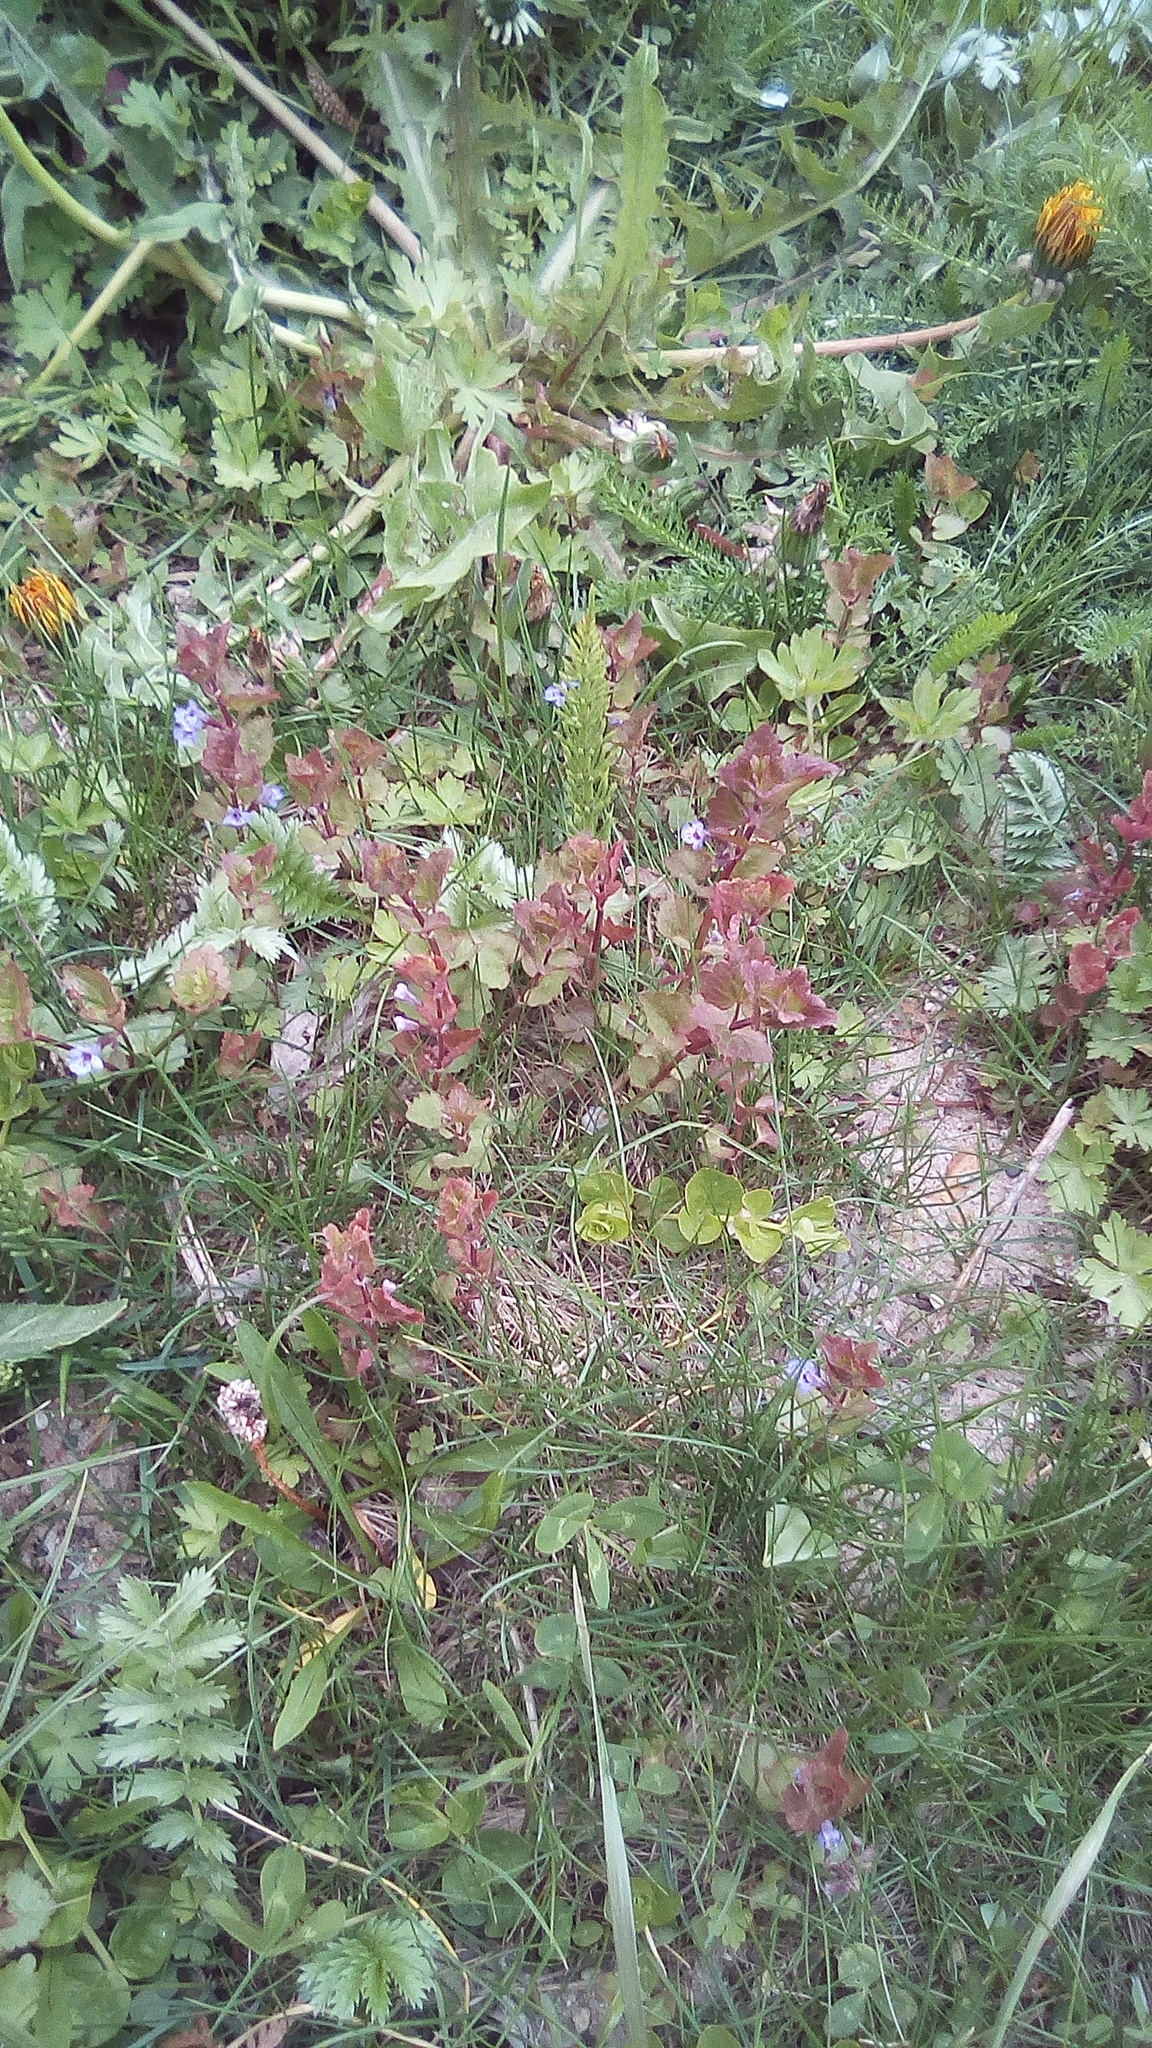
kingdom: Plantae
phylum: Tracheophyta
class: Magnoliopsida
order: Lamiales
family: Lamiaceae
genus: Glechoma
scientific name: Glechoma hederacea
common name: Ground ivy
